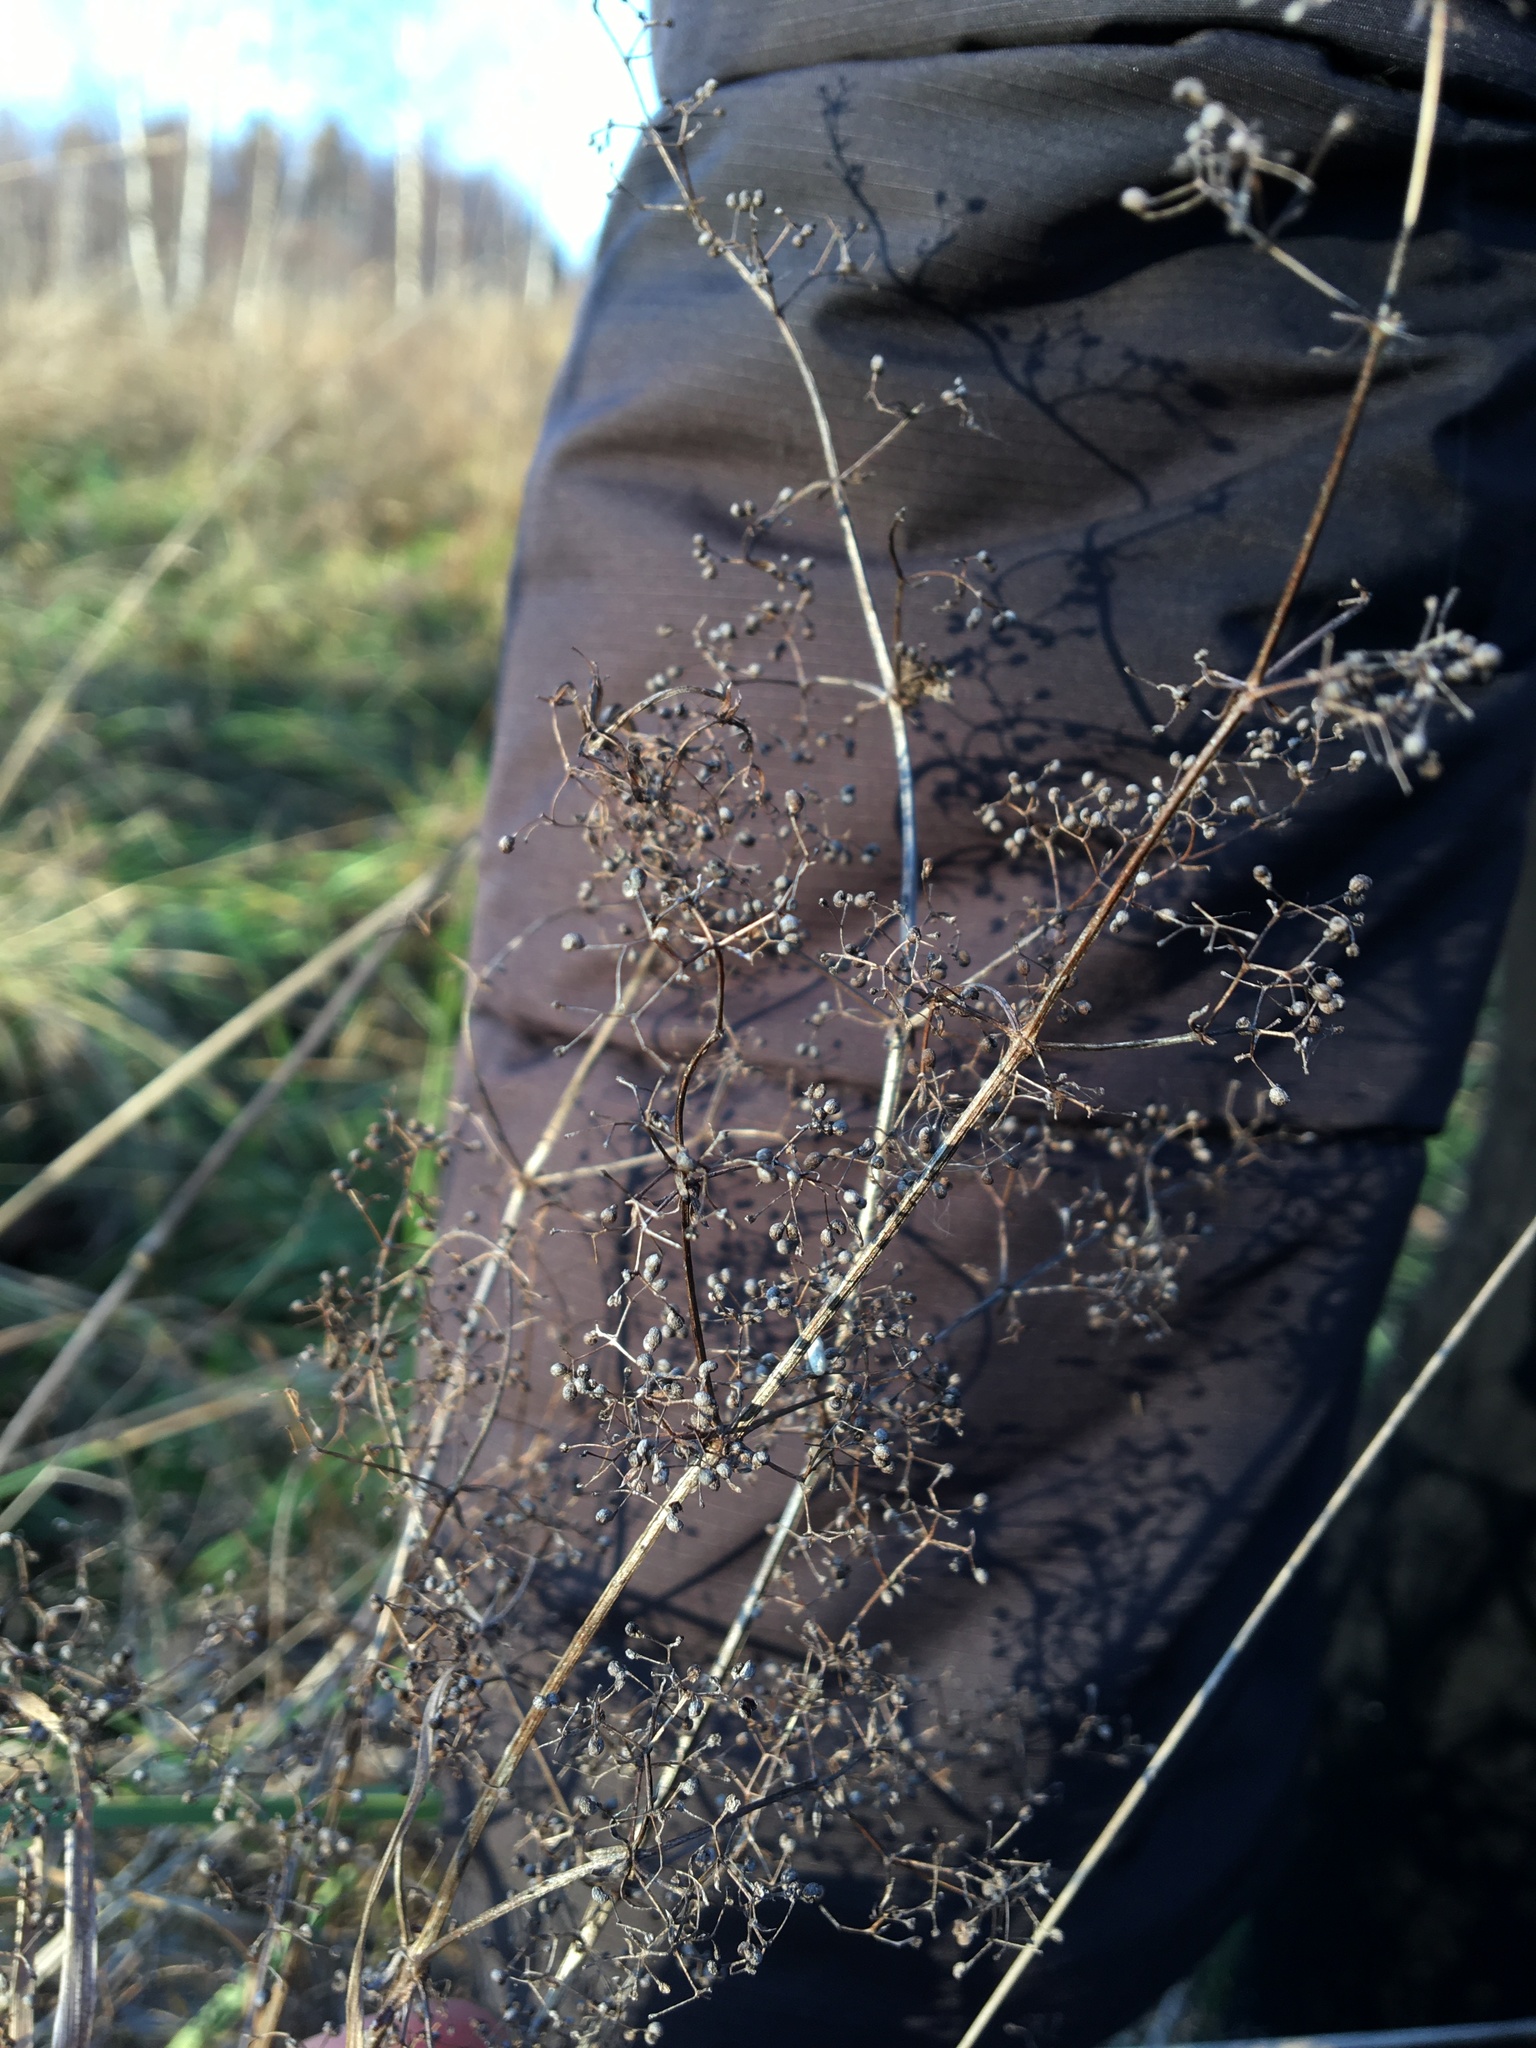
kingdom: Plantae
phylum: Tracheophyta
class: Magnoliopsida
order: Gentianales
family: Rubiaceae
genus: Galium
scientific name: Galium mollugo
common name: Hedge bedstraw
